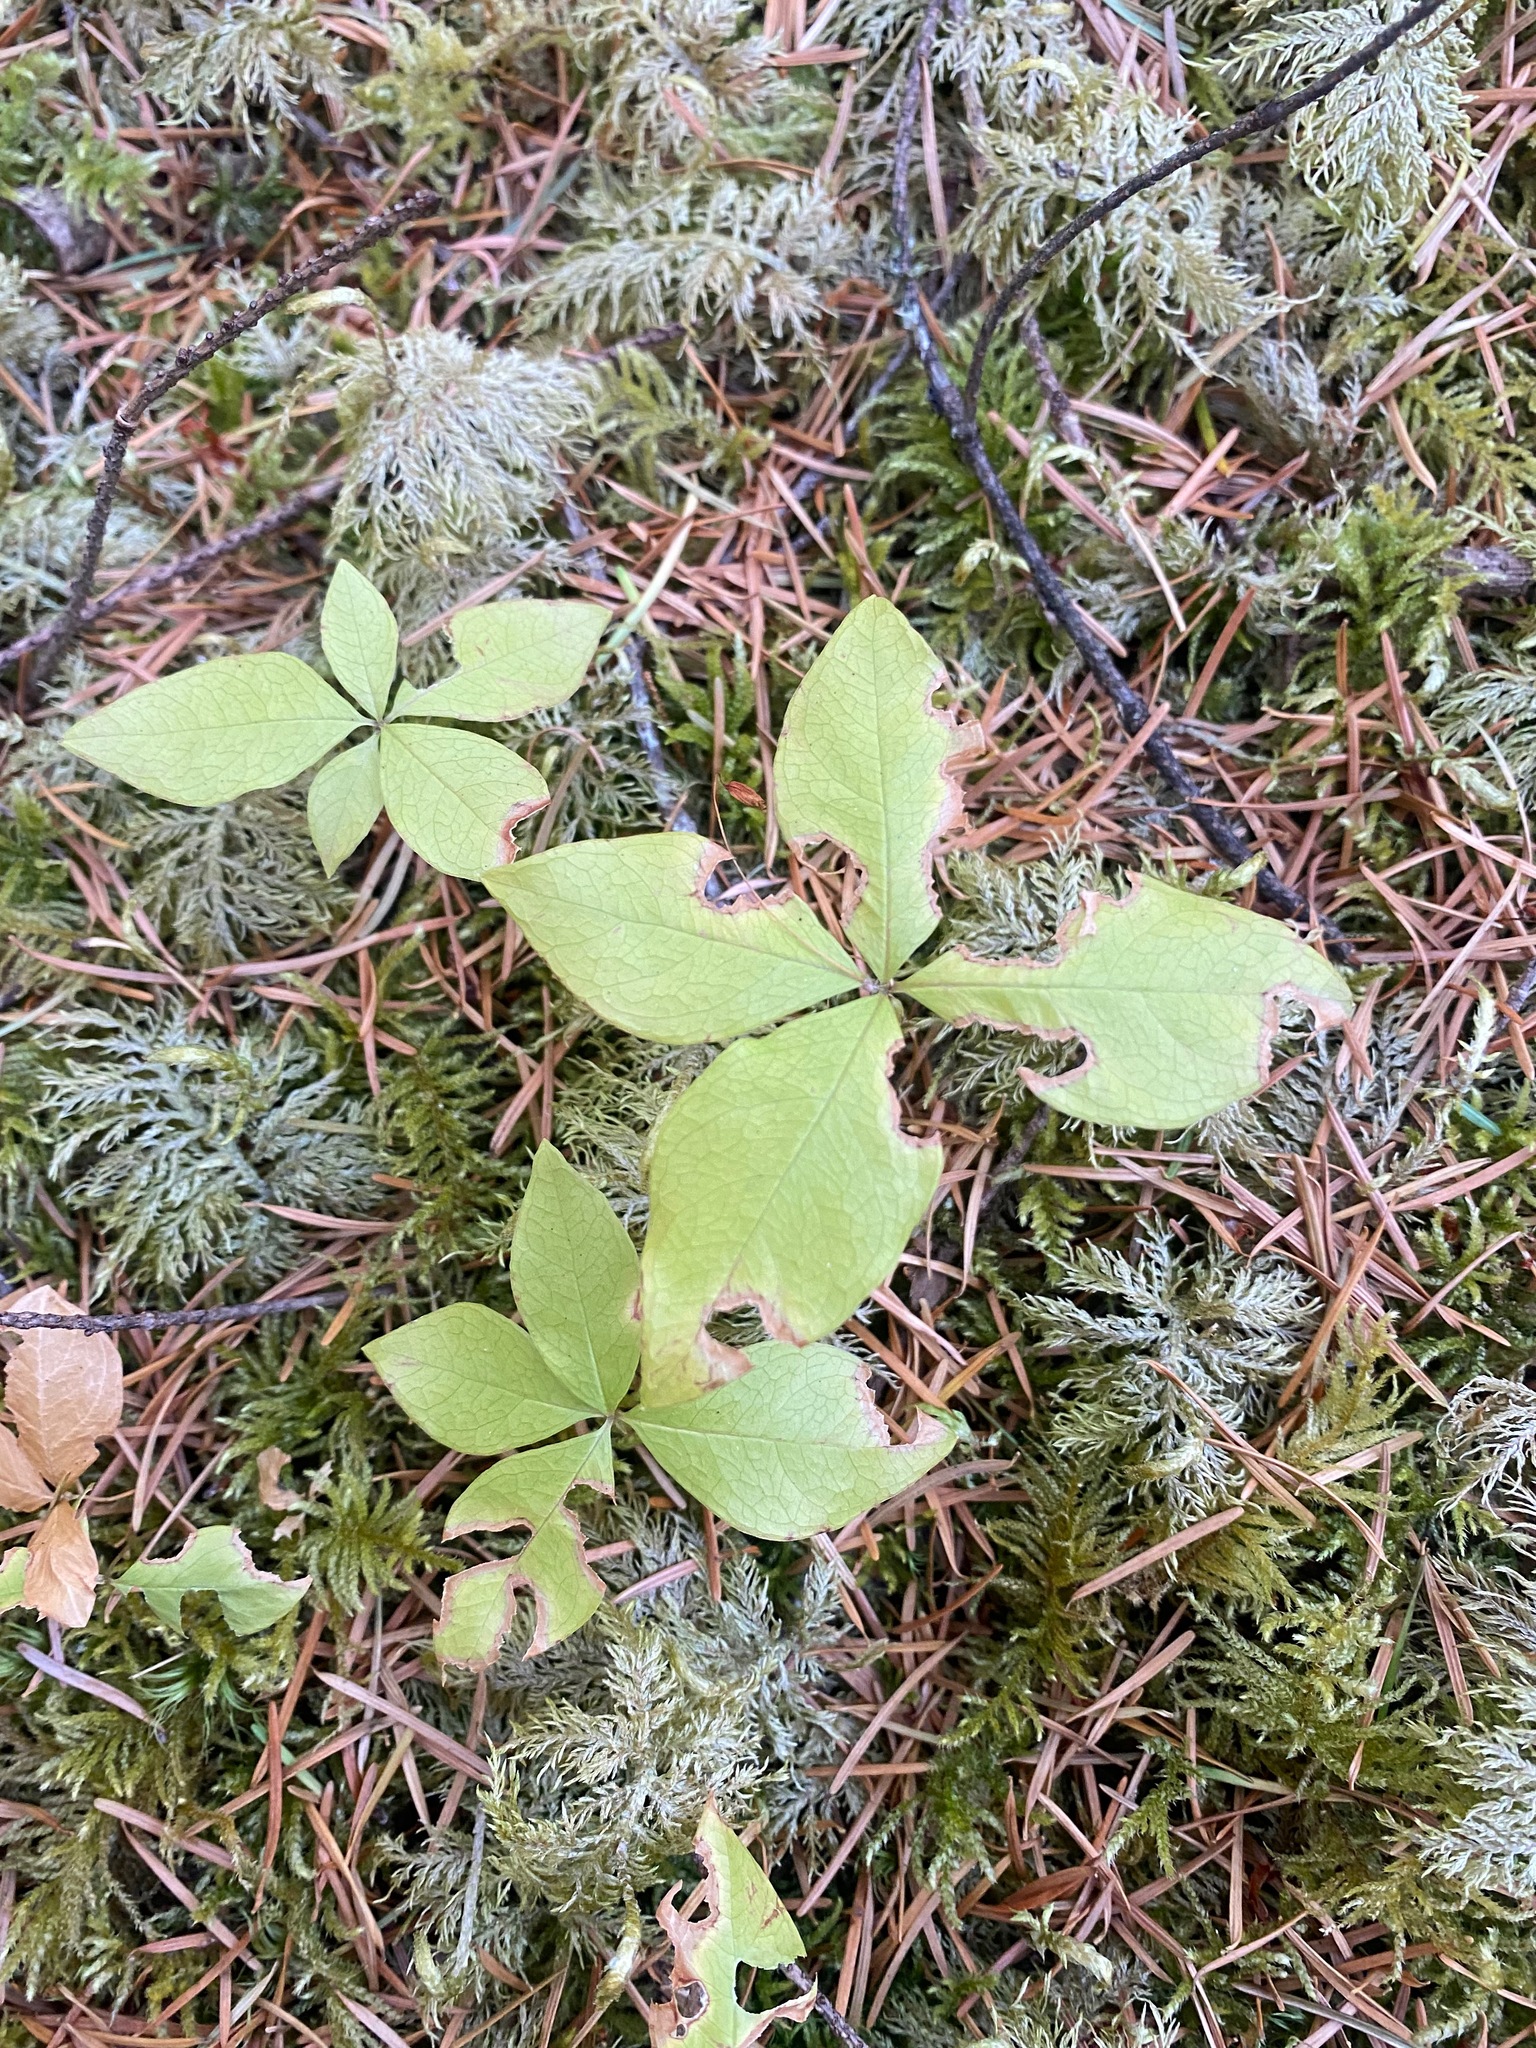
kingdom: Plantae
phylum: Tracheophyta
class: Magnoliopsida
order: Ericales
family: Primulaceae
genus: Lysimachia
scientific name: Lysimachia latifolia
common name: Pacific starflower
